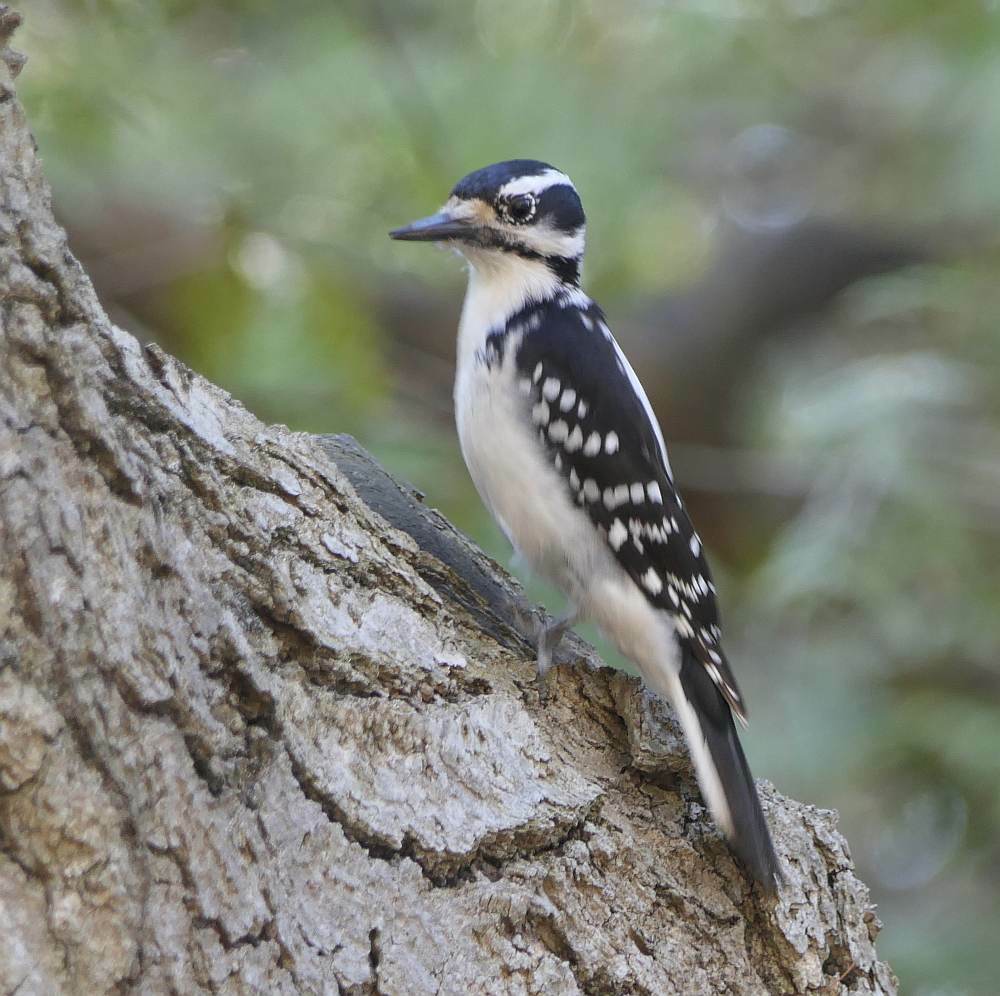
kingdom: Animalia
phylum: Chordata
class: Aves
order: Piciformes
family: Picidae
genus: Leuconotopicus
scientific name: Leuconotopicus villosus
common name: Hairy woodpecker
